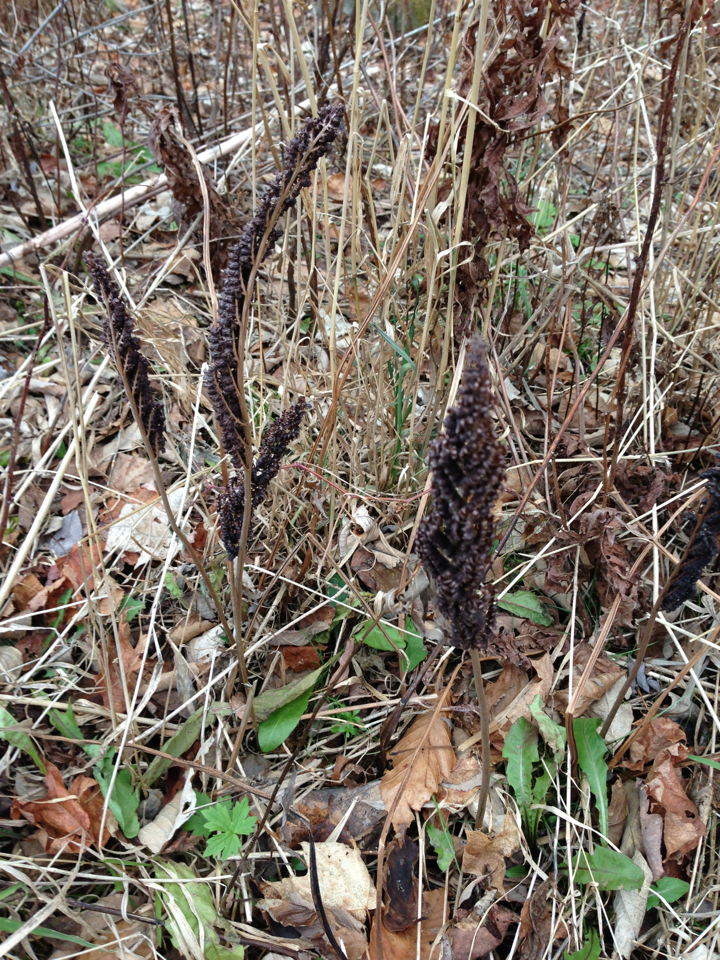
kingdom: Plantae
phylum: Tracheophyta
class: Polypodiopsida
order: Polypodiales
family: Onocleaceae
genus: Onoclea
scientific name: Onoclea sensibilis
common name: Sensitive fern
